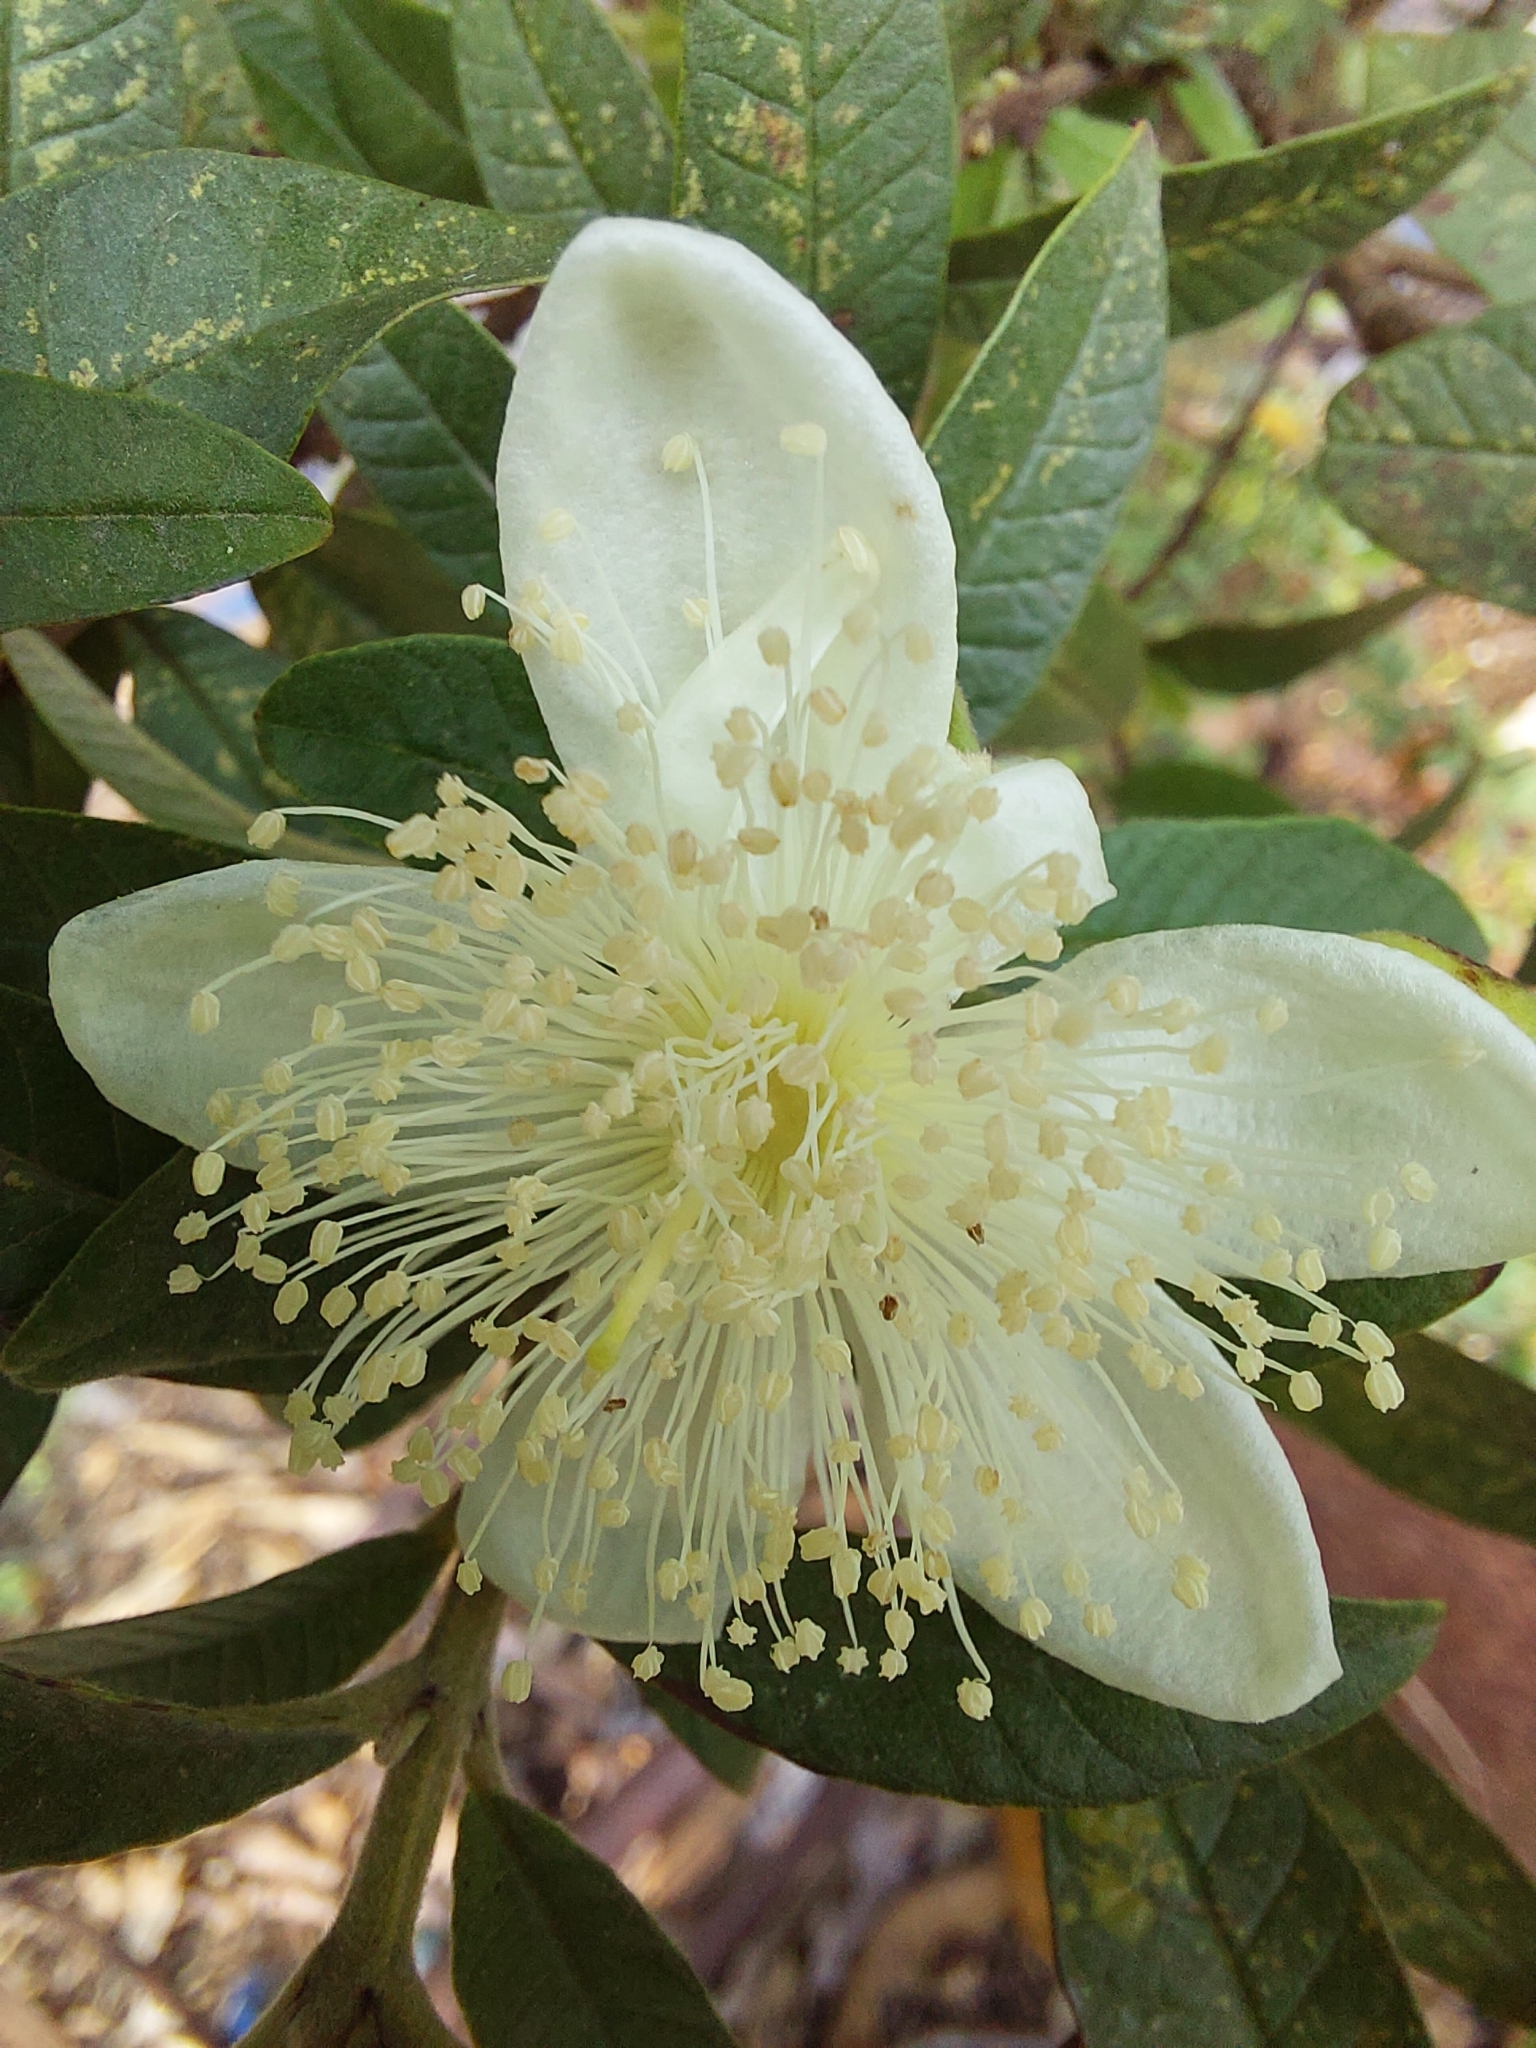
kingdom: Plantae
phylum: Tracheophyta
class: Magnoliopsida
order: Myrtales
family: Myrtaceae
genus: Psidium
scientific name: Psidium guajava
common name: Guava
